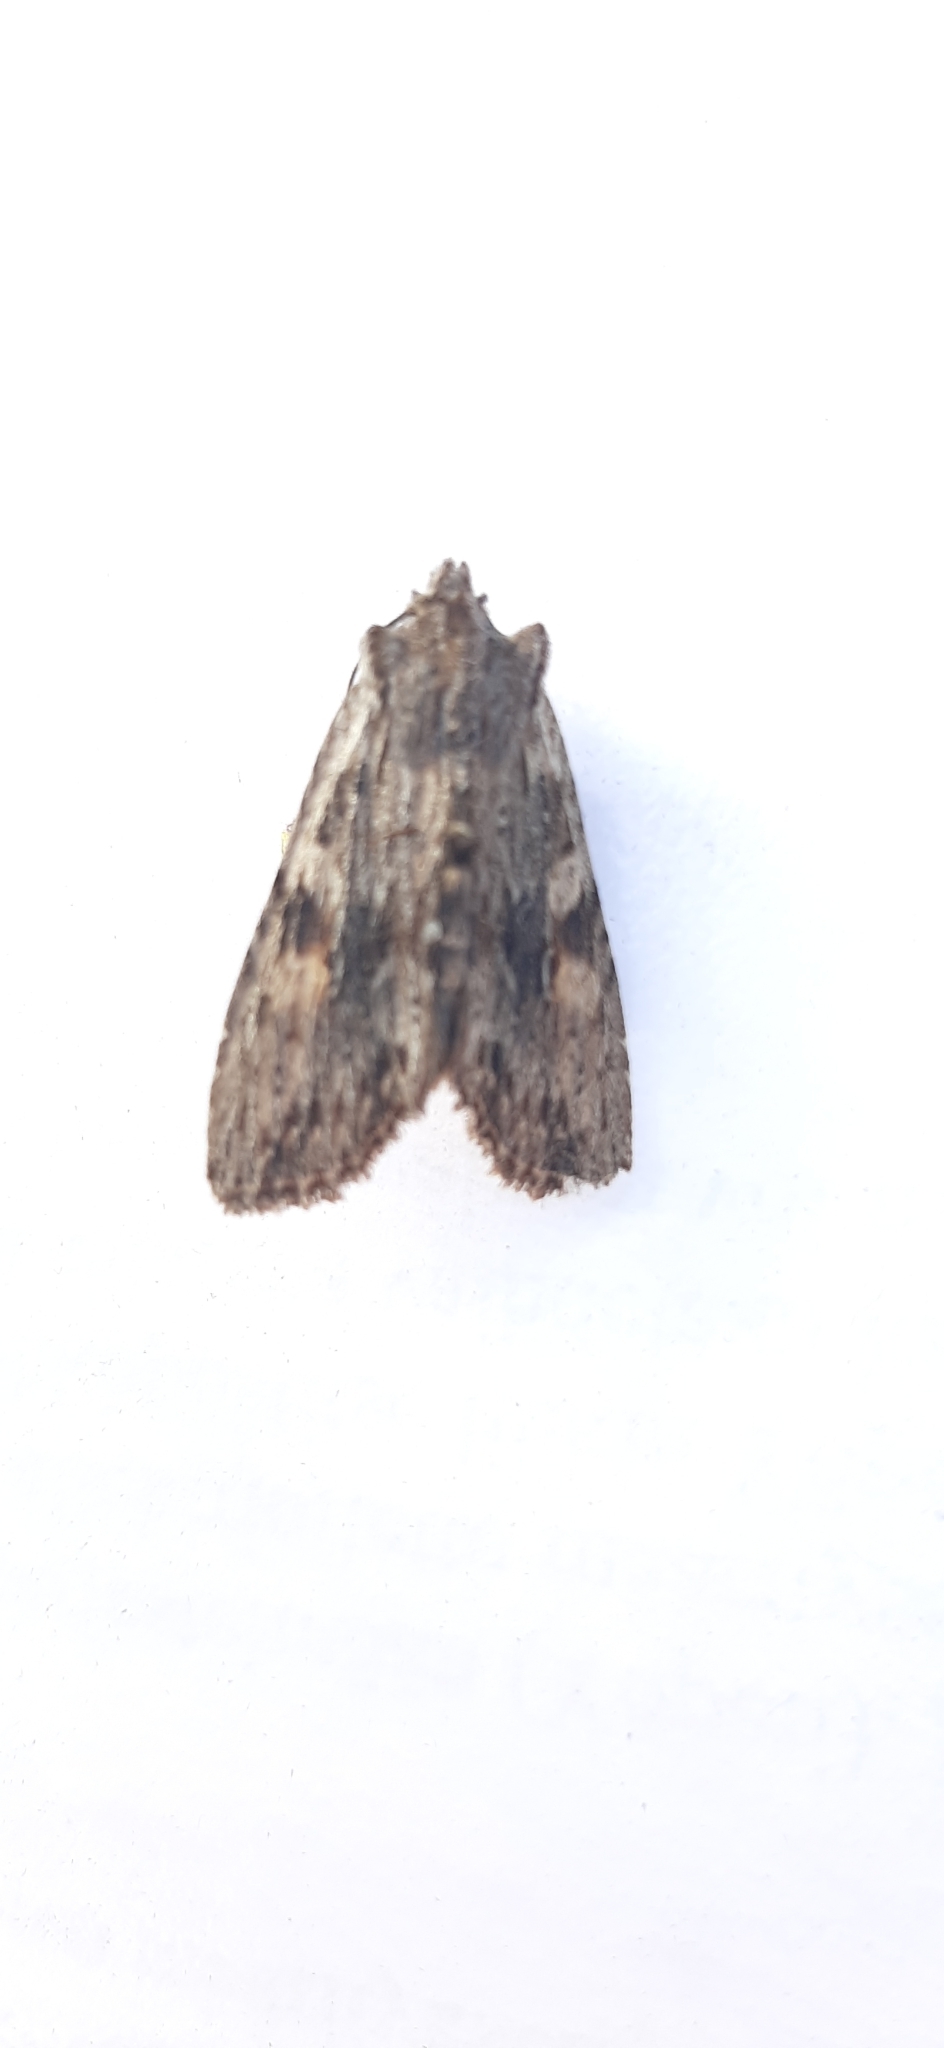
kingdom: Animalia
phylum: Arthropoda
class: Insecta
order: Lepidoptera
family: Noctuidae
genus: Lithophane
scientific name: Lithophane socia
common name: Pale pinion
